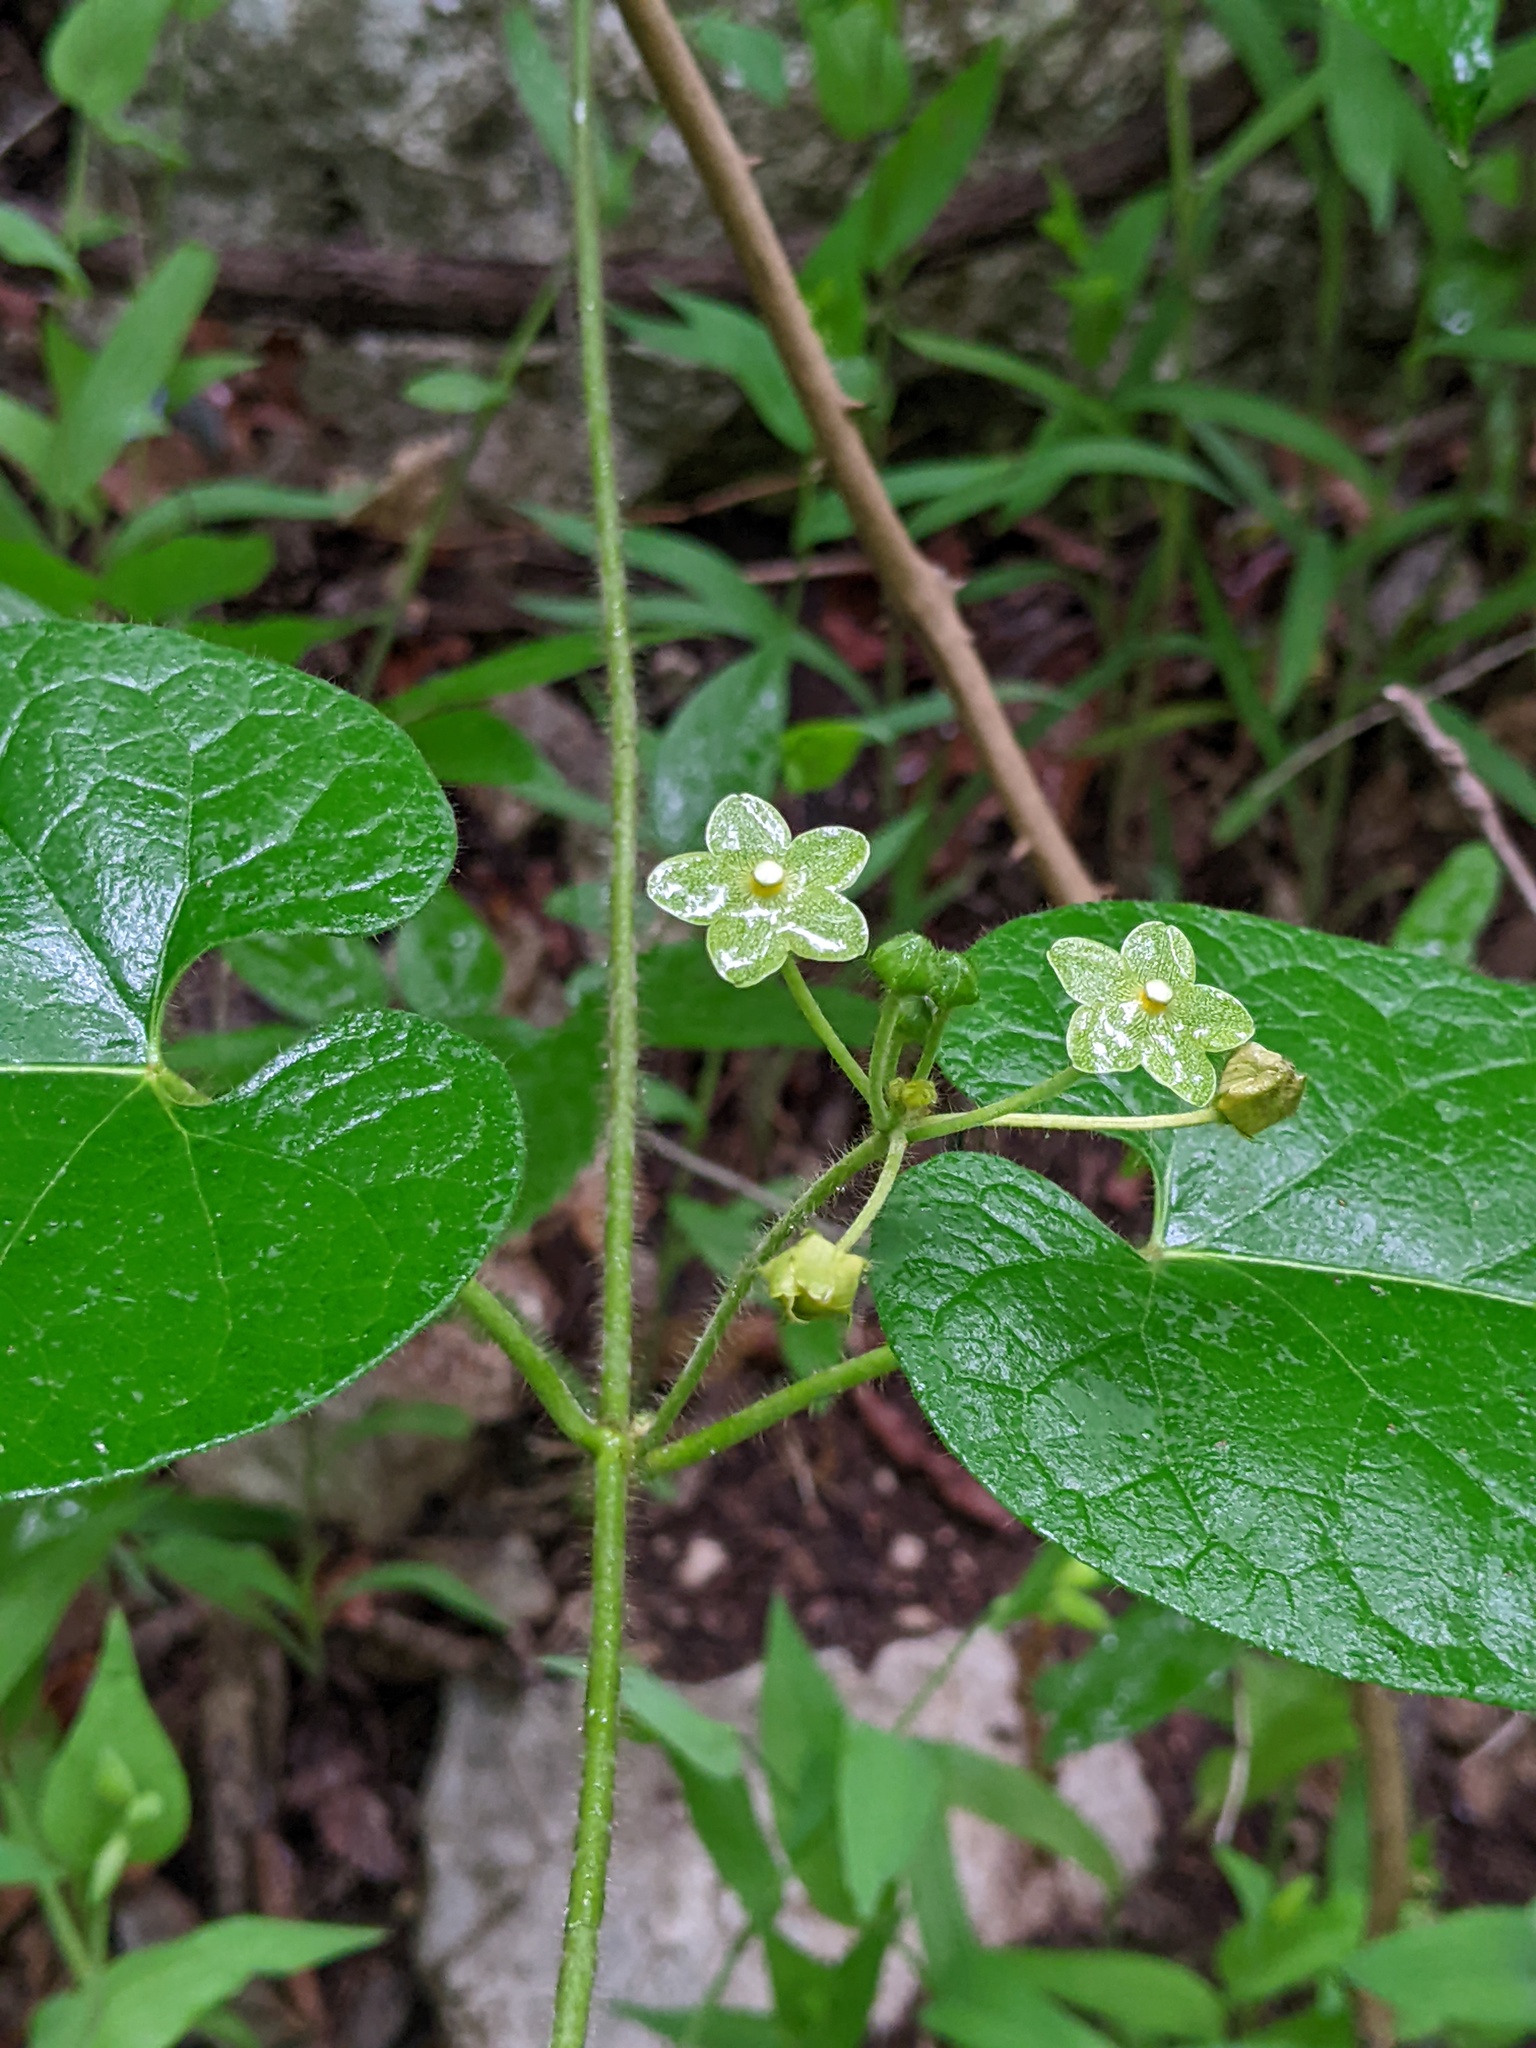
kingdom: Plantae
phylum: Tracheophyta
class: Magnoliopsida
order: Gentianales
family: Apocynaceae
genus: Dictyanthus
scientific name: Dictyanthus reticulatus
